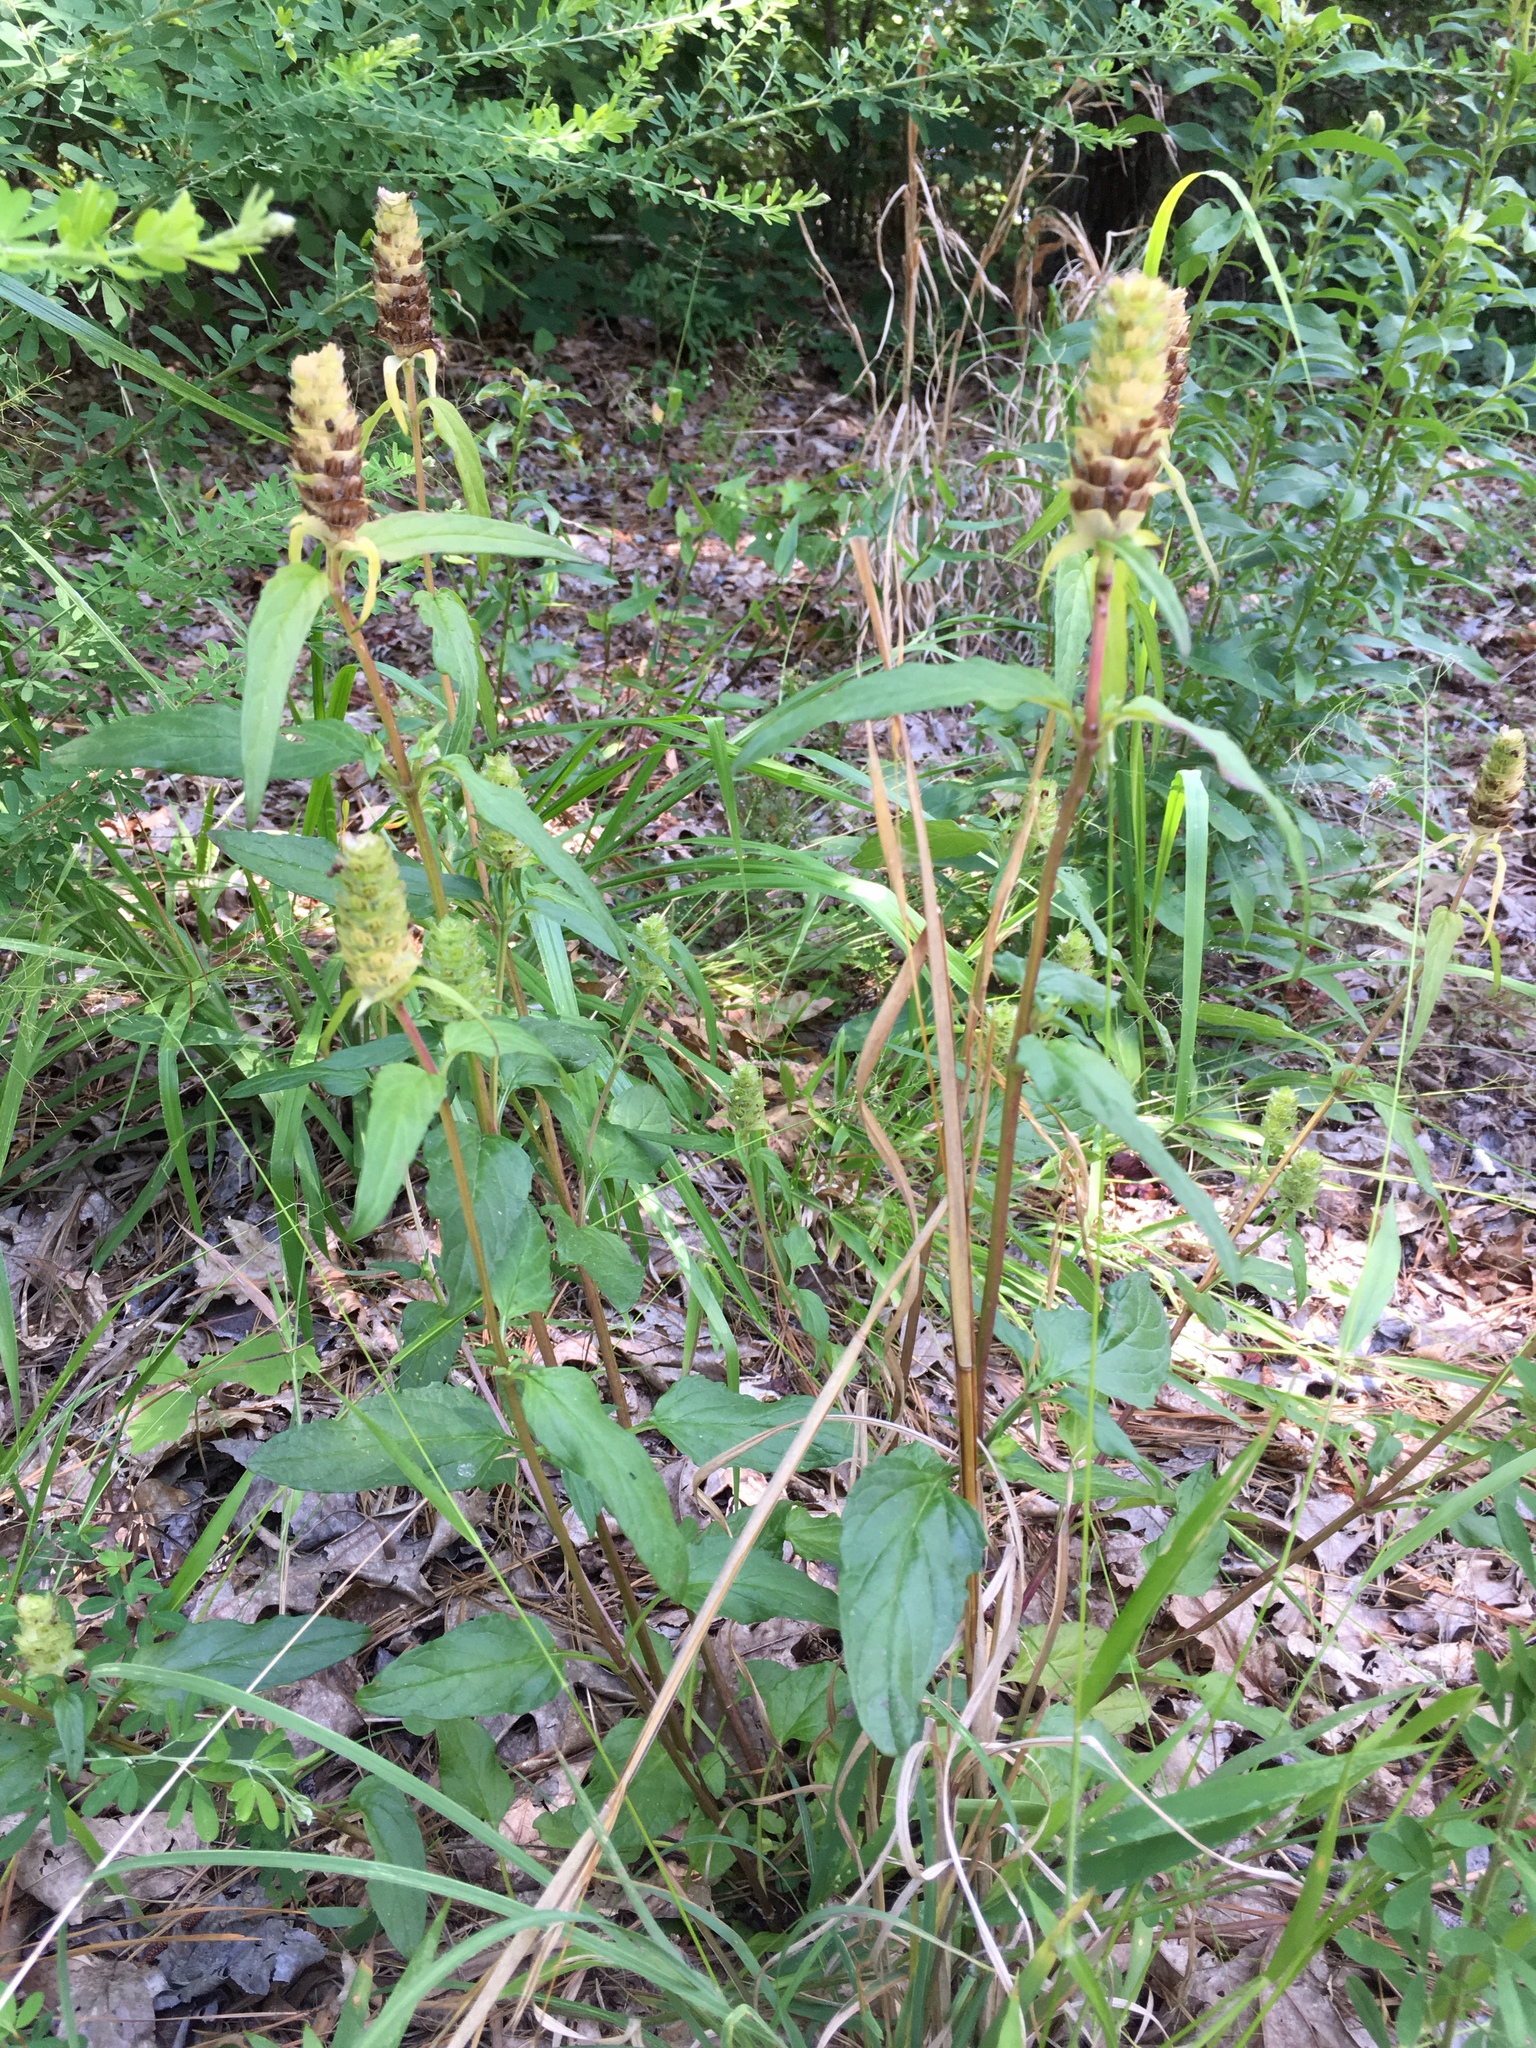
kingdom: Plantae
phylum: Tracheophyta
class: Magnoliopsida
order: Lamiales
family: Lamiaceae
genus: Prunella
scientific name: Prunella vulgaris
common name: Heal-all
